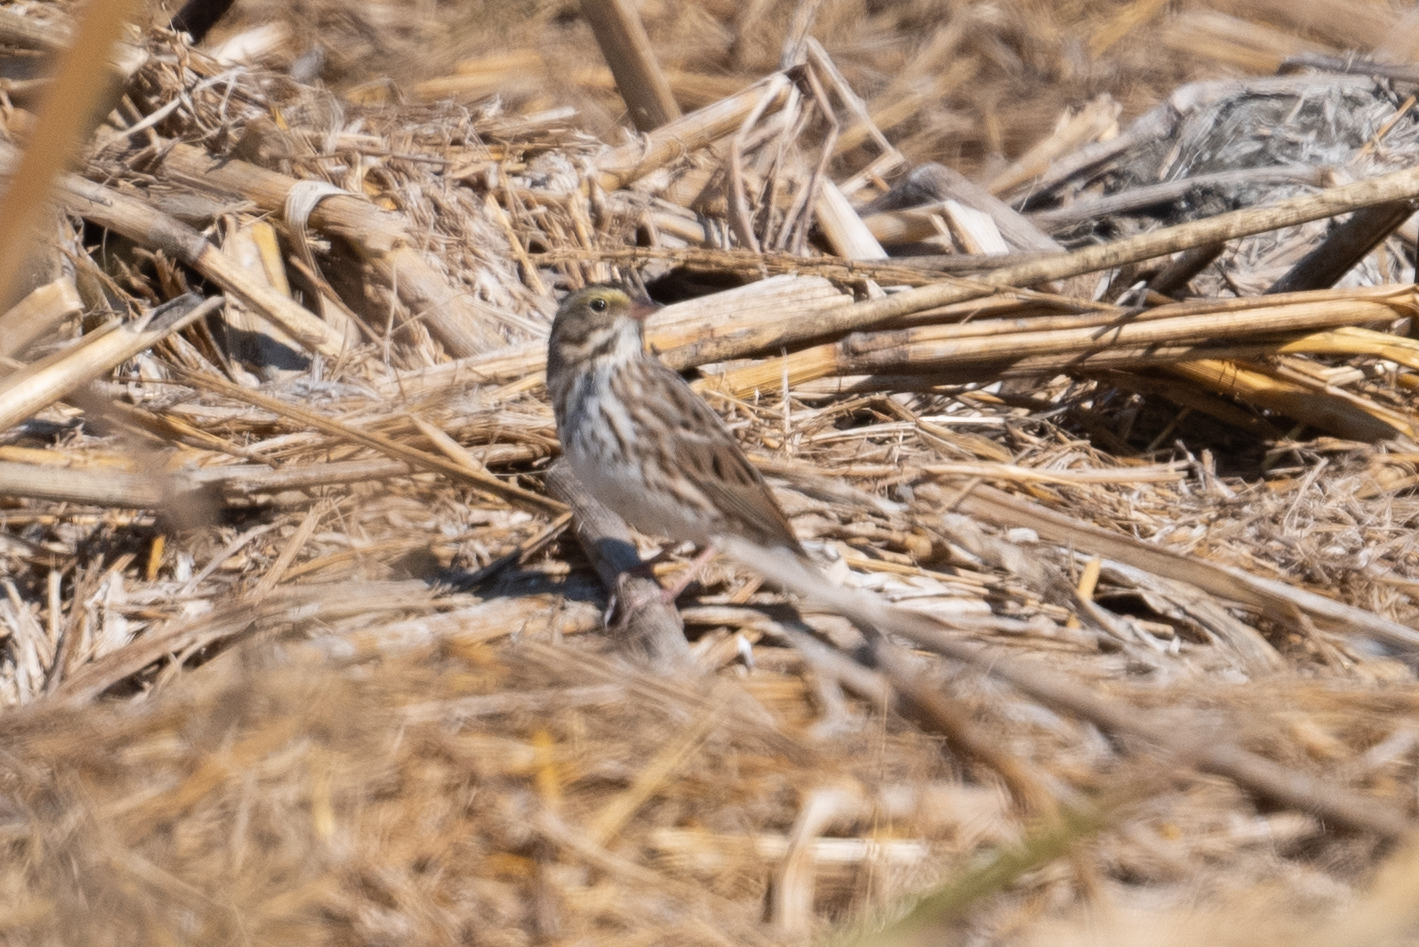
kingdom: Animalia
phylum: Chordata
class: Aves
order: Passeriformes
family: Passerellidae
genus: Passerculus
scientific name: Passerculus sandwichensis
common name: Savannah sparrow
